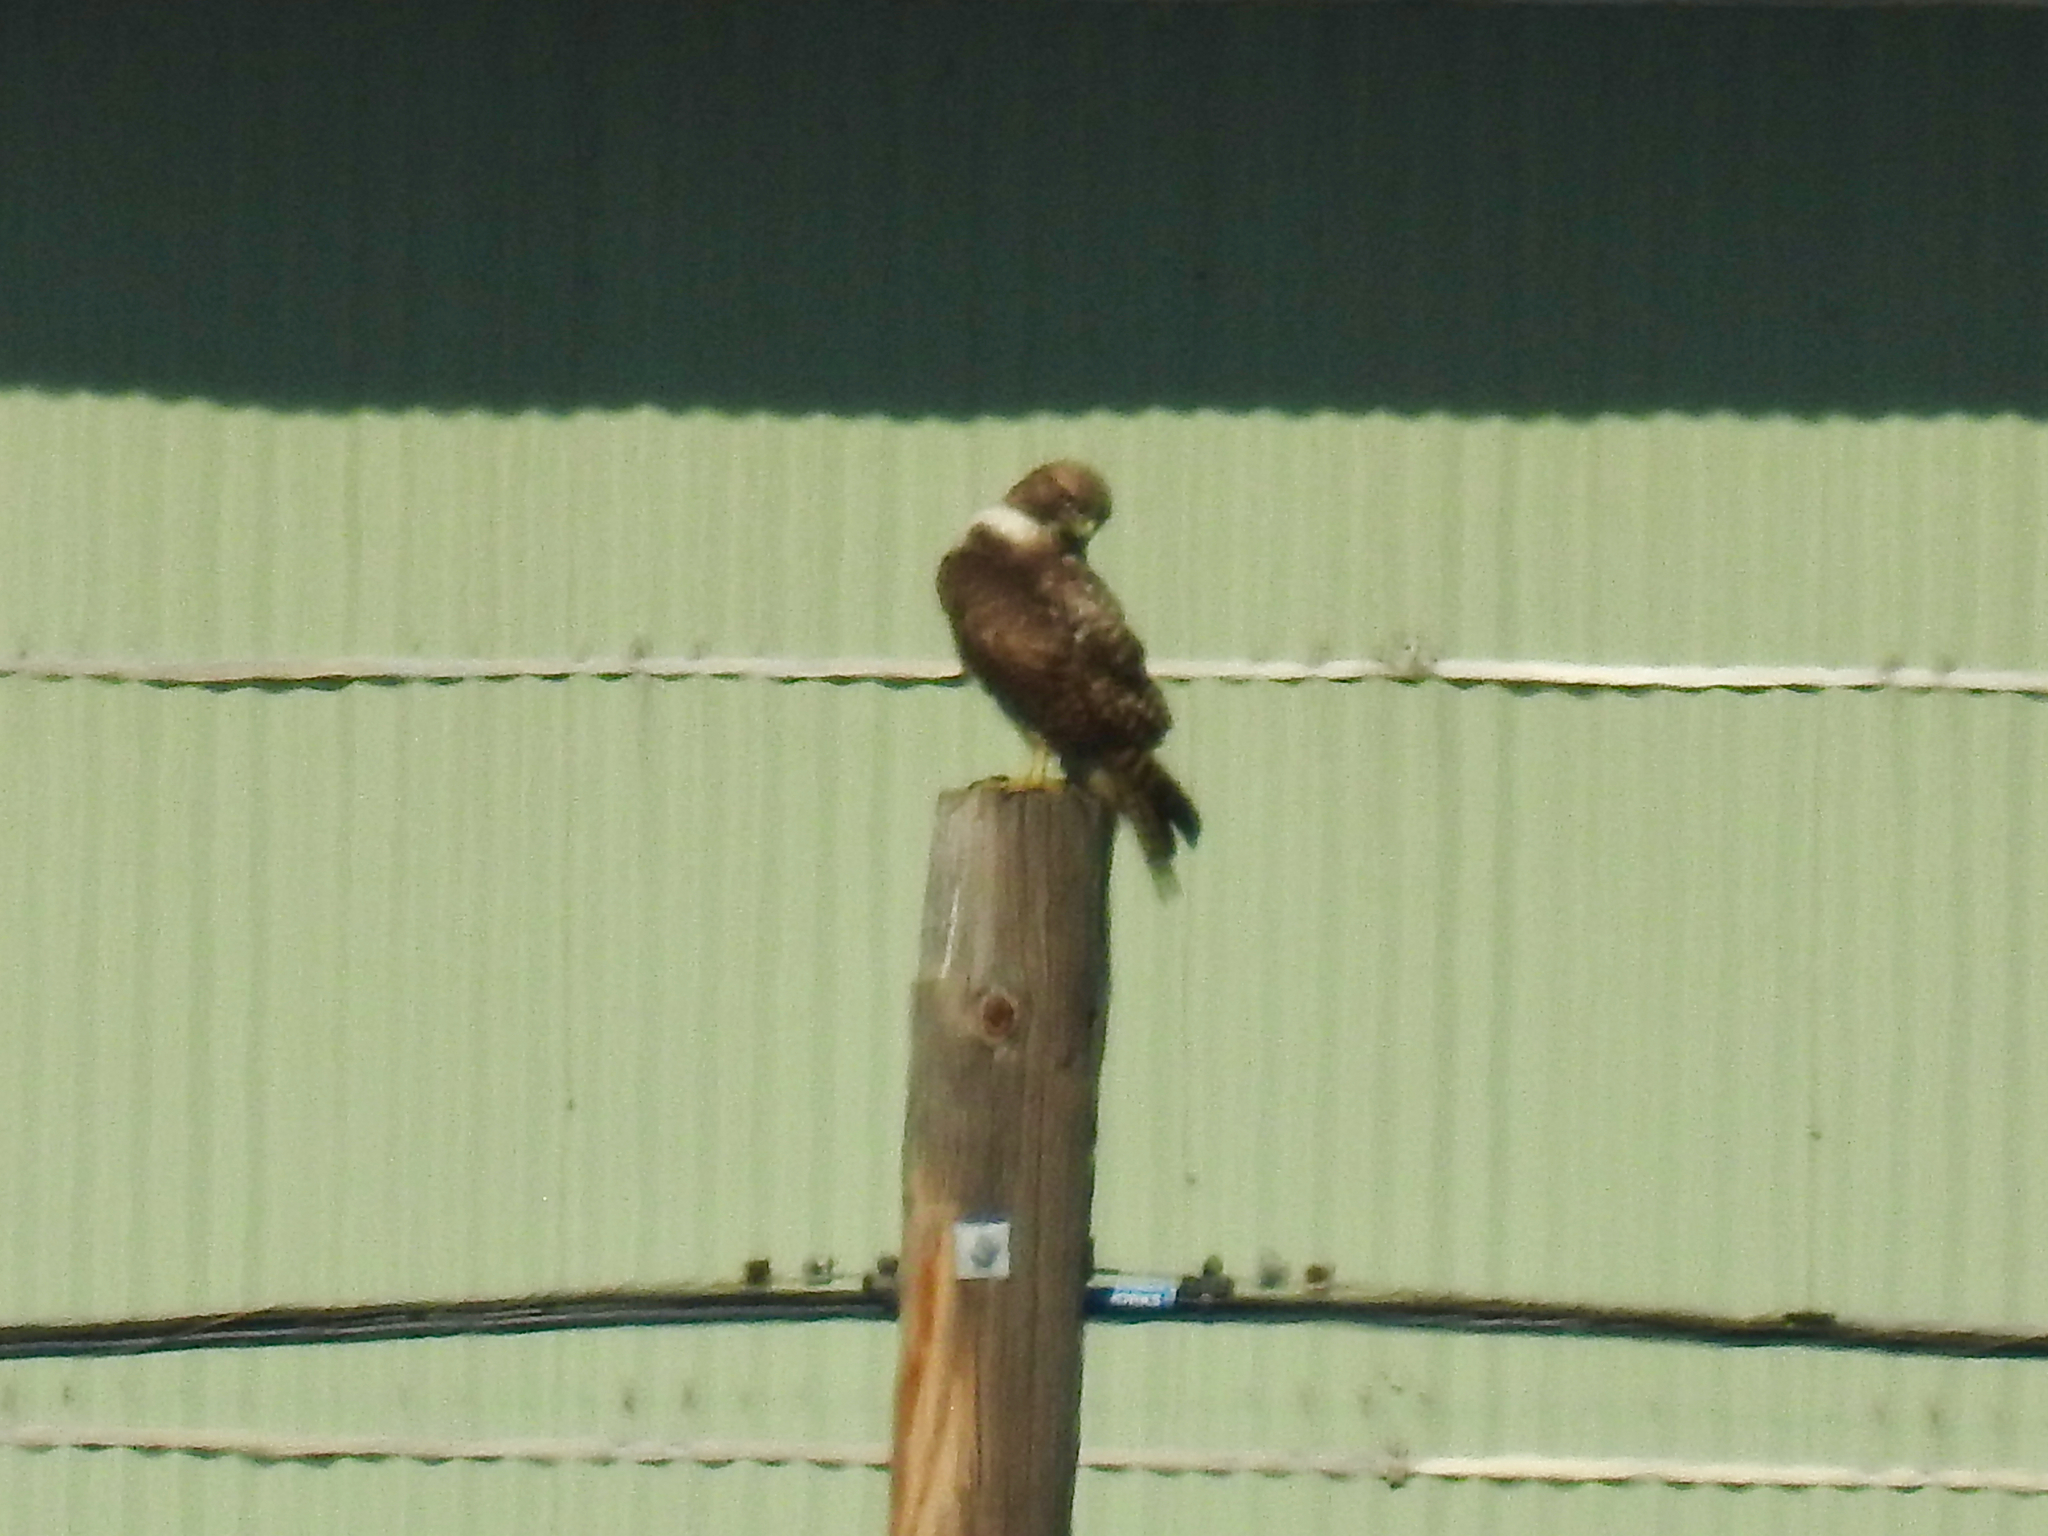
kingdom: Animalia
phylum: Chordata
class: Aves
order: Accipitriformes
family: Accipitridae
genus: Buteo
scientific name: Buteo jamaicensis
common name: Red-tailed hawk
